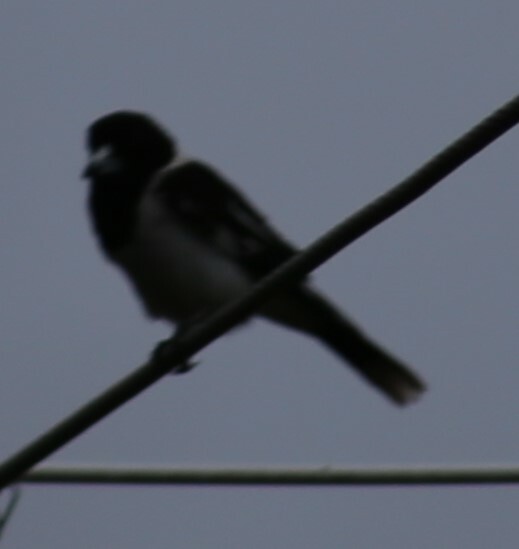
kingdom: Animalia
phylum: Chordata
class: Aves
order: Passeriformes
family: Cracticidae
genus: Cracticus
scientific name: Cracticus nigrogularis
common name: Pied butcherbird
